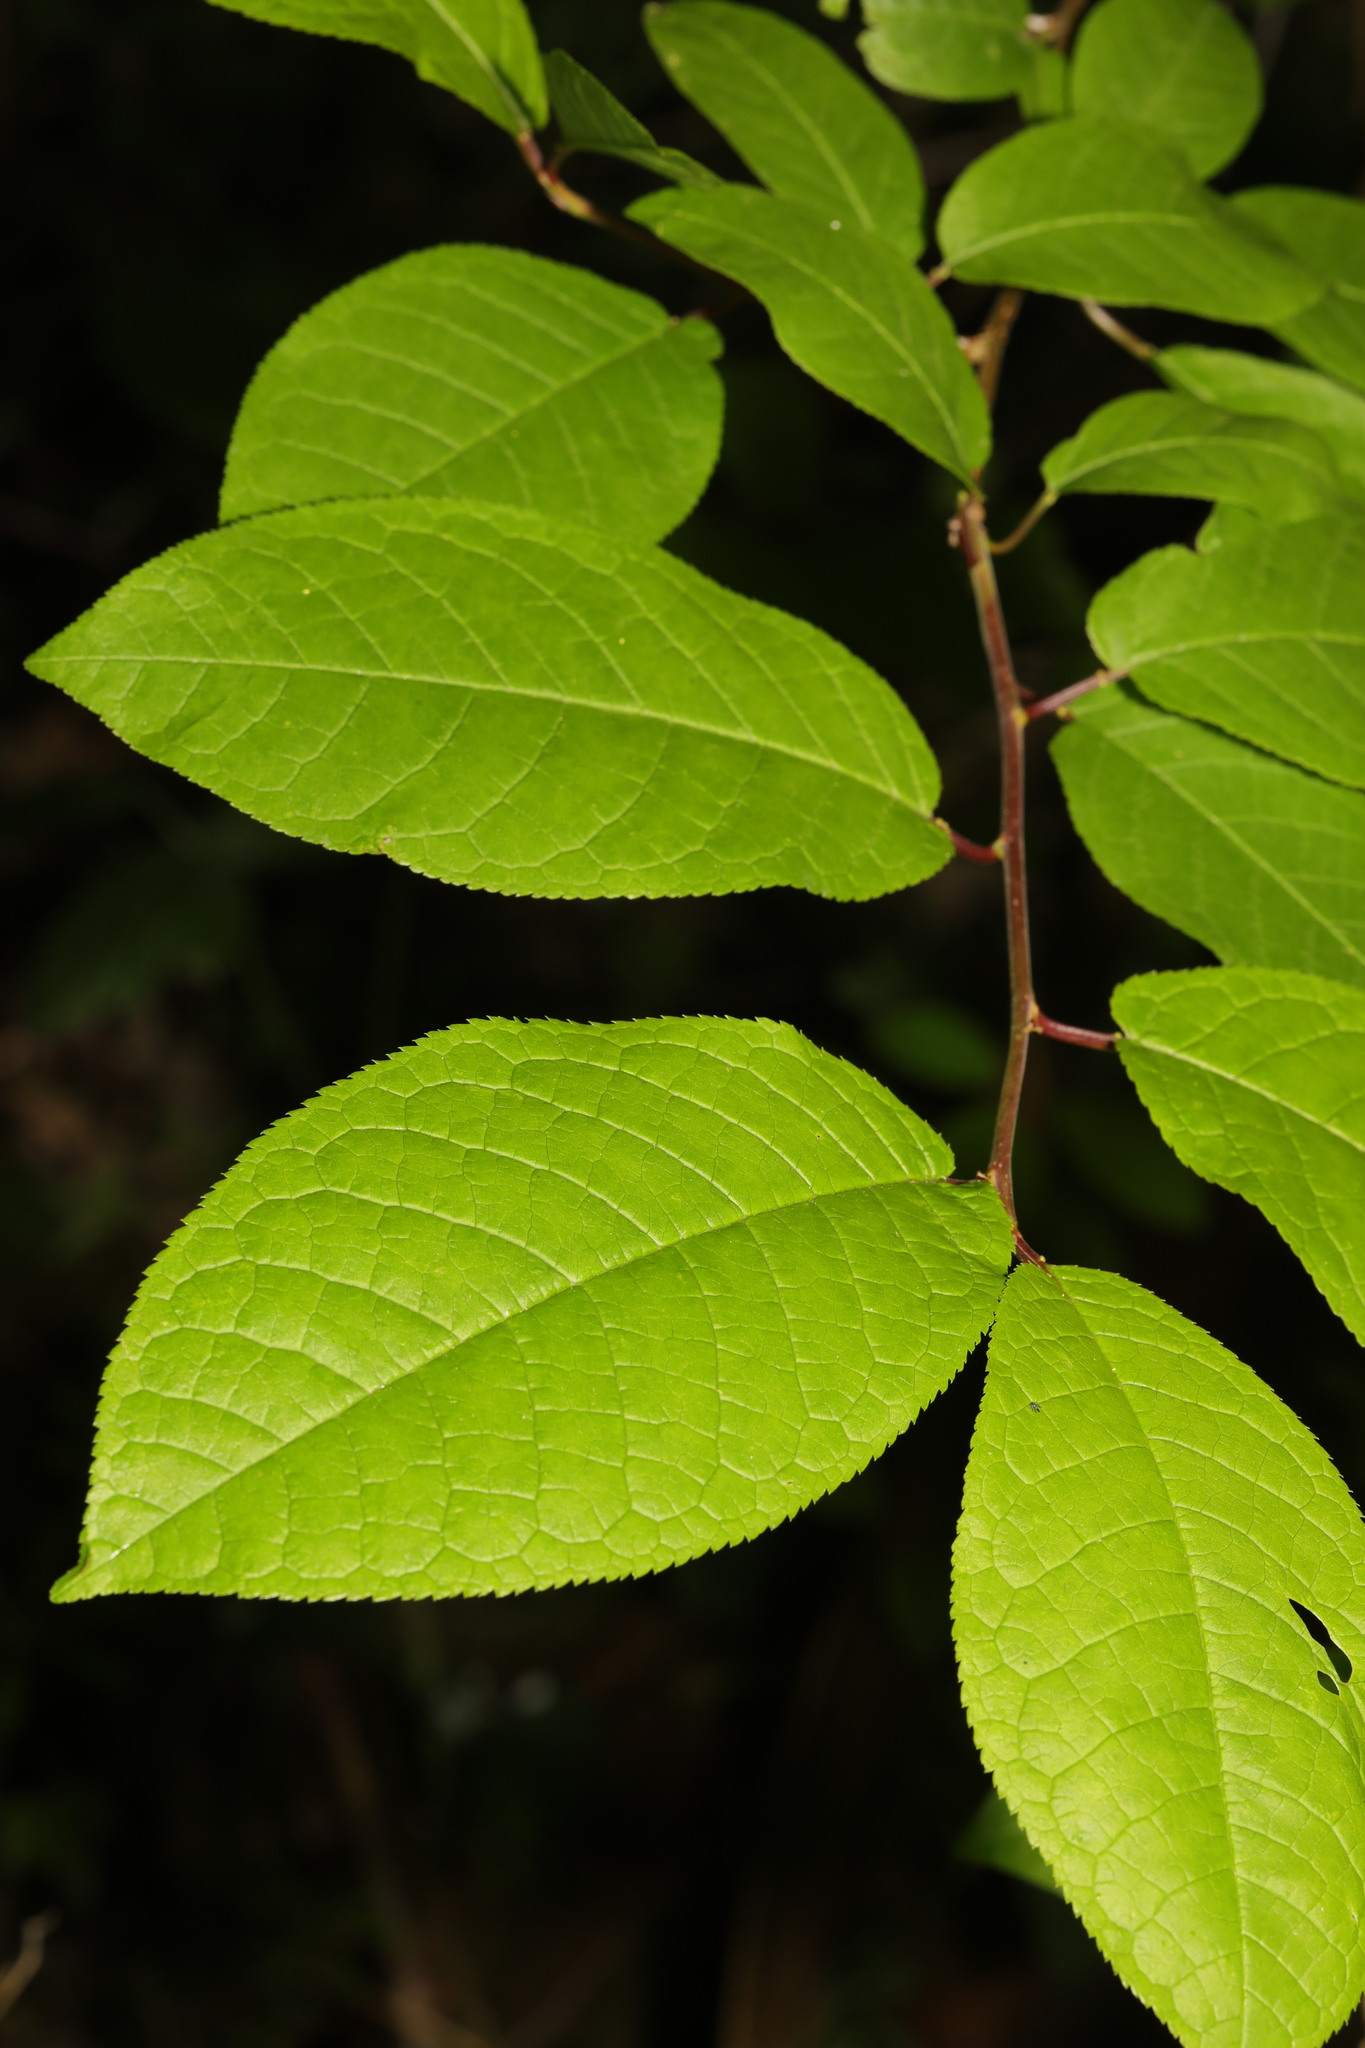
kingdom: Plantae
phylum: Tracheophyta
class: Magnoliopsida
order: Rosales
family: Rosaceae
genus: Prunus
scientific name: Prunus padus
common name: Bird cherry
